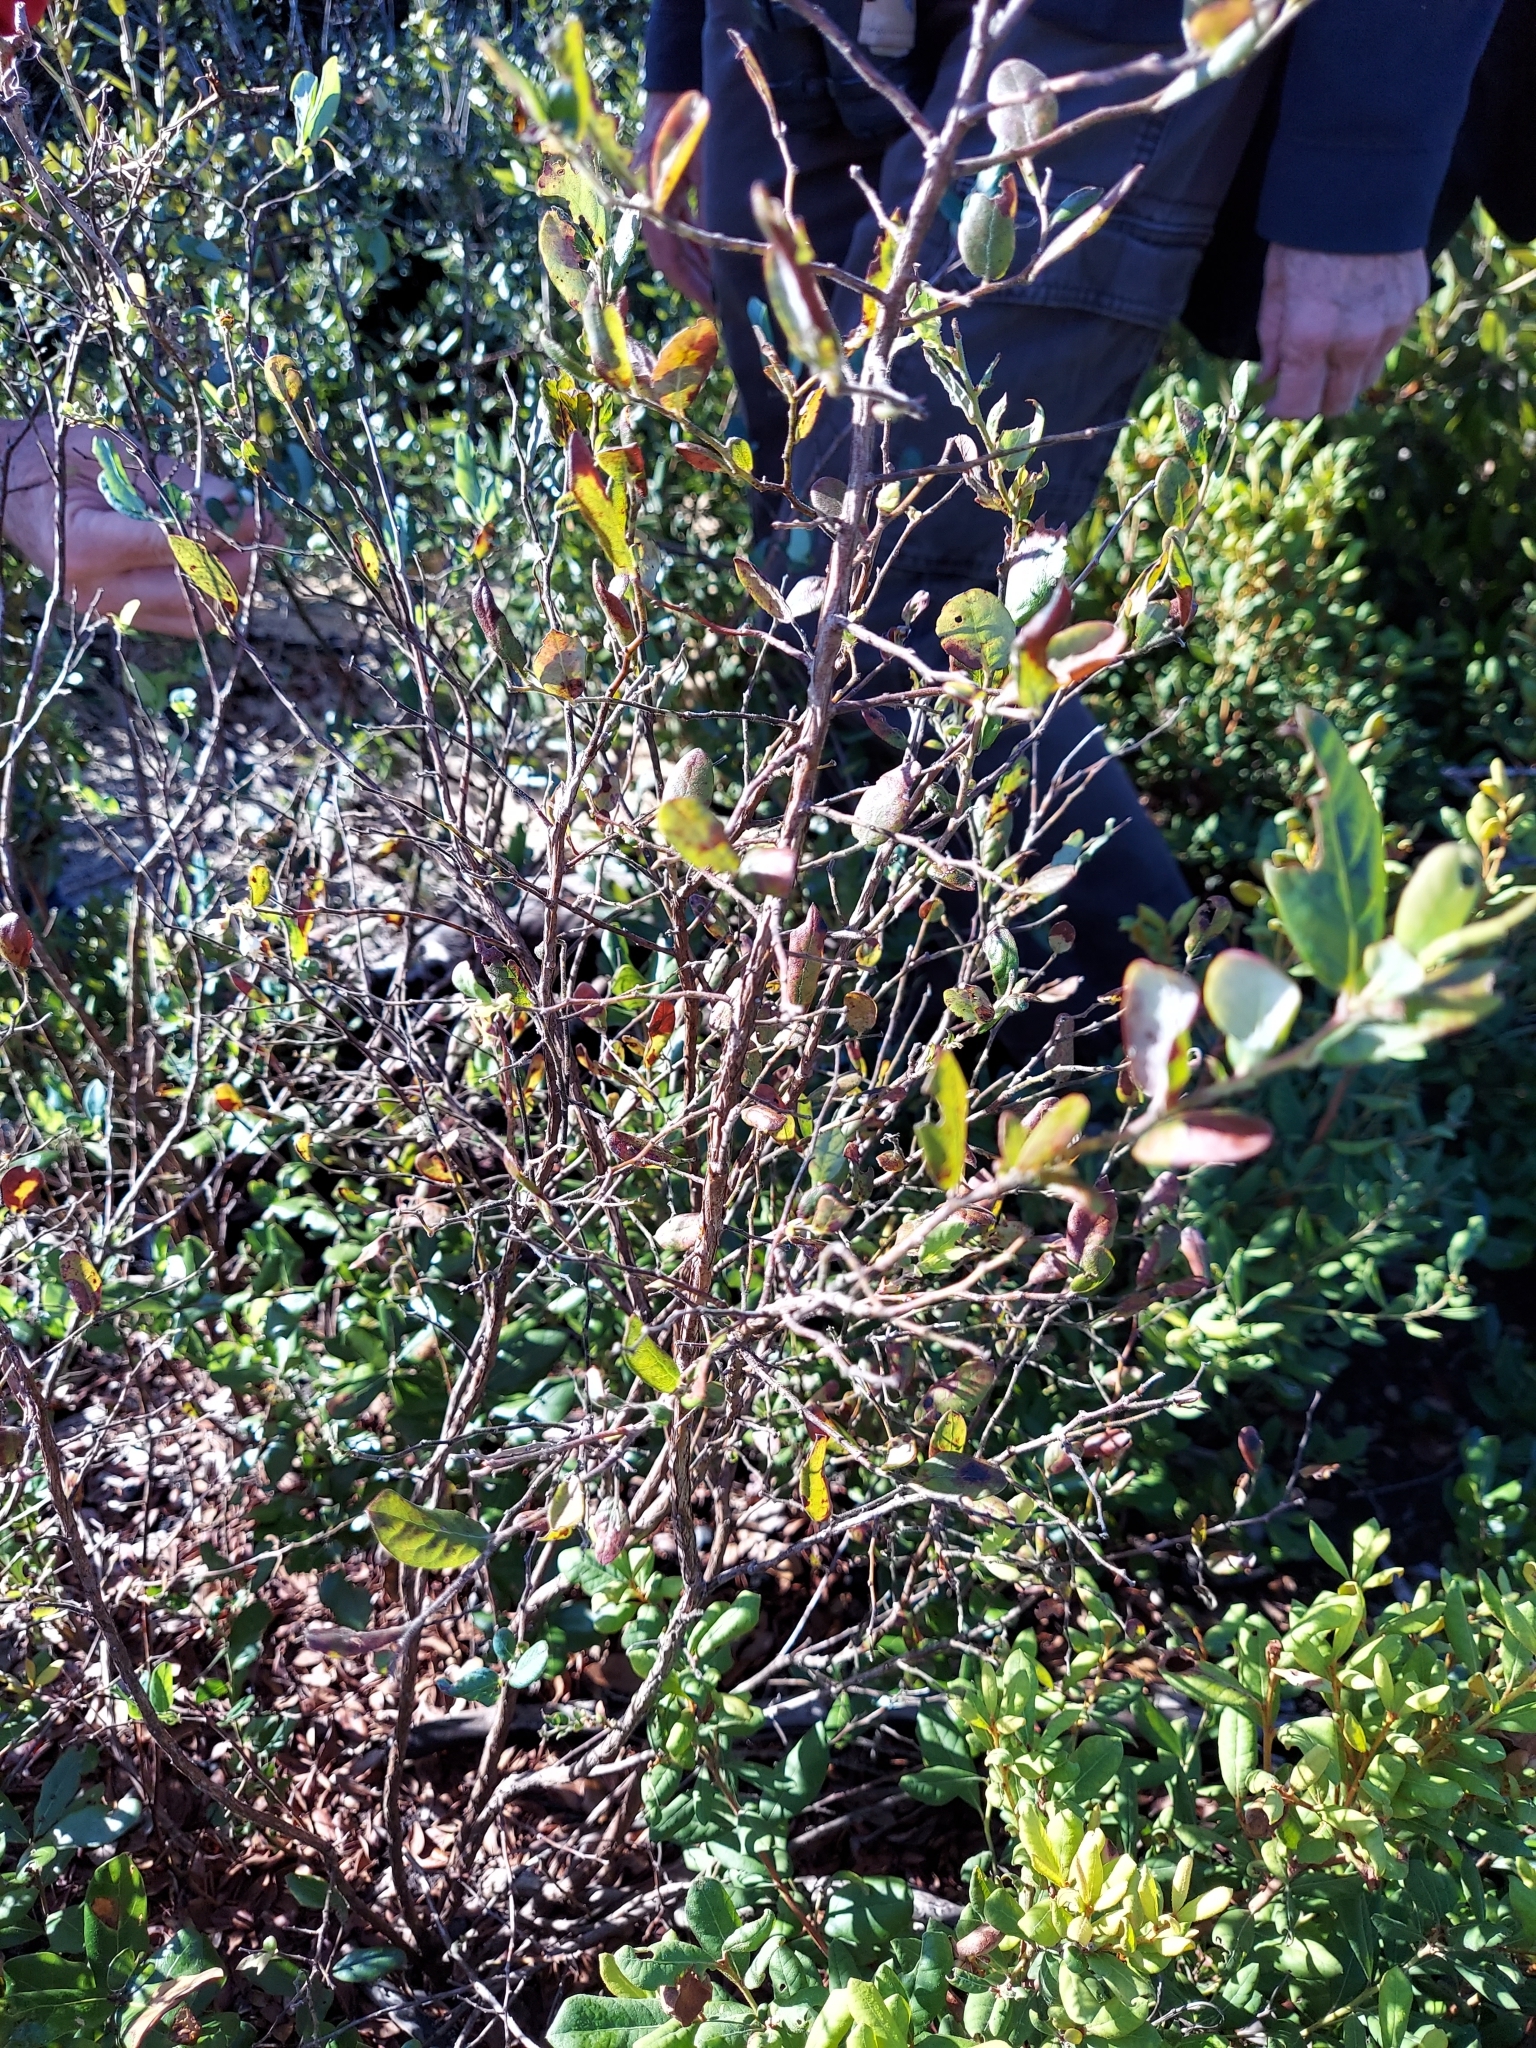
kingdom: Plantae
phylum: Tracheophyta
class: Magnoliopsida
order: Ericales
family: Ericaceae
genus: Vaccinium
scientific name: Vaccinium stamineum
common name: Deerberry
